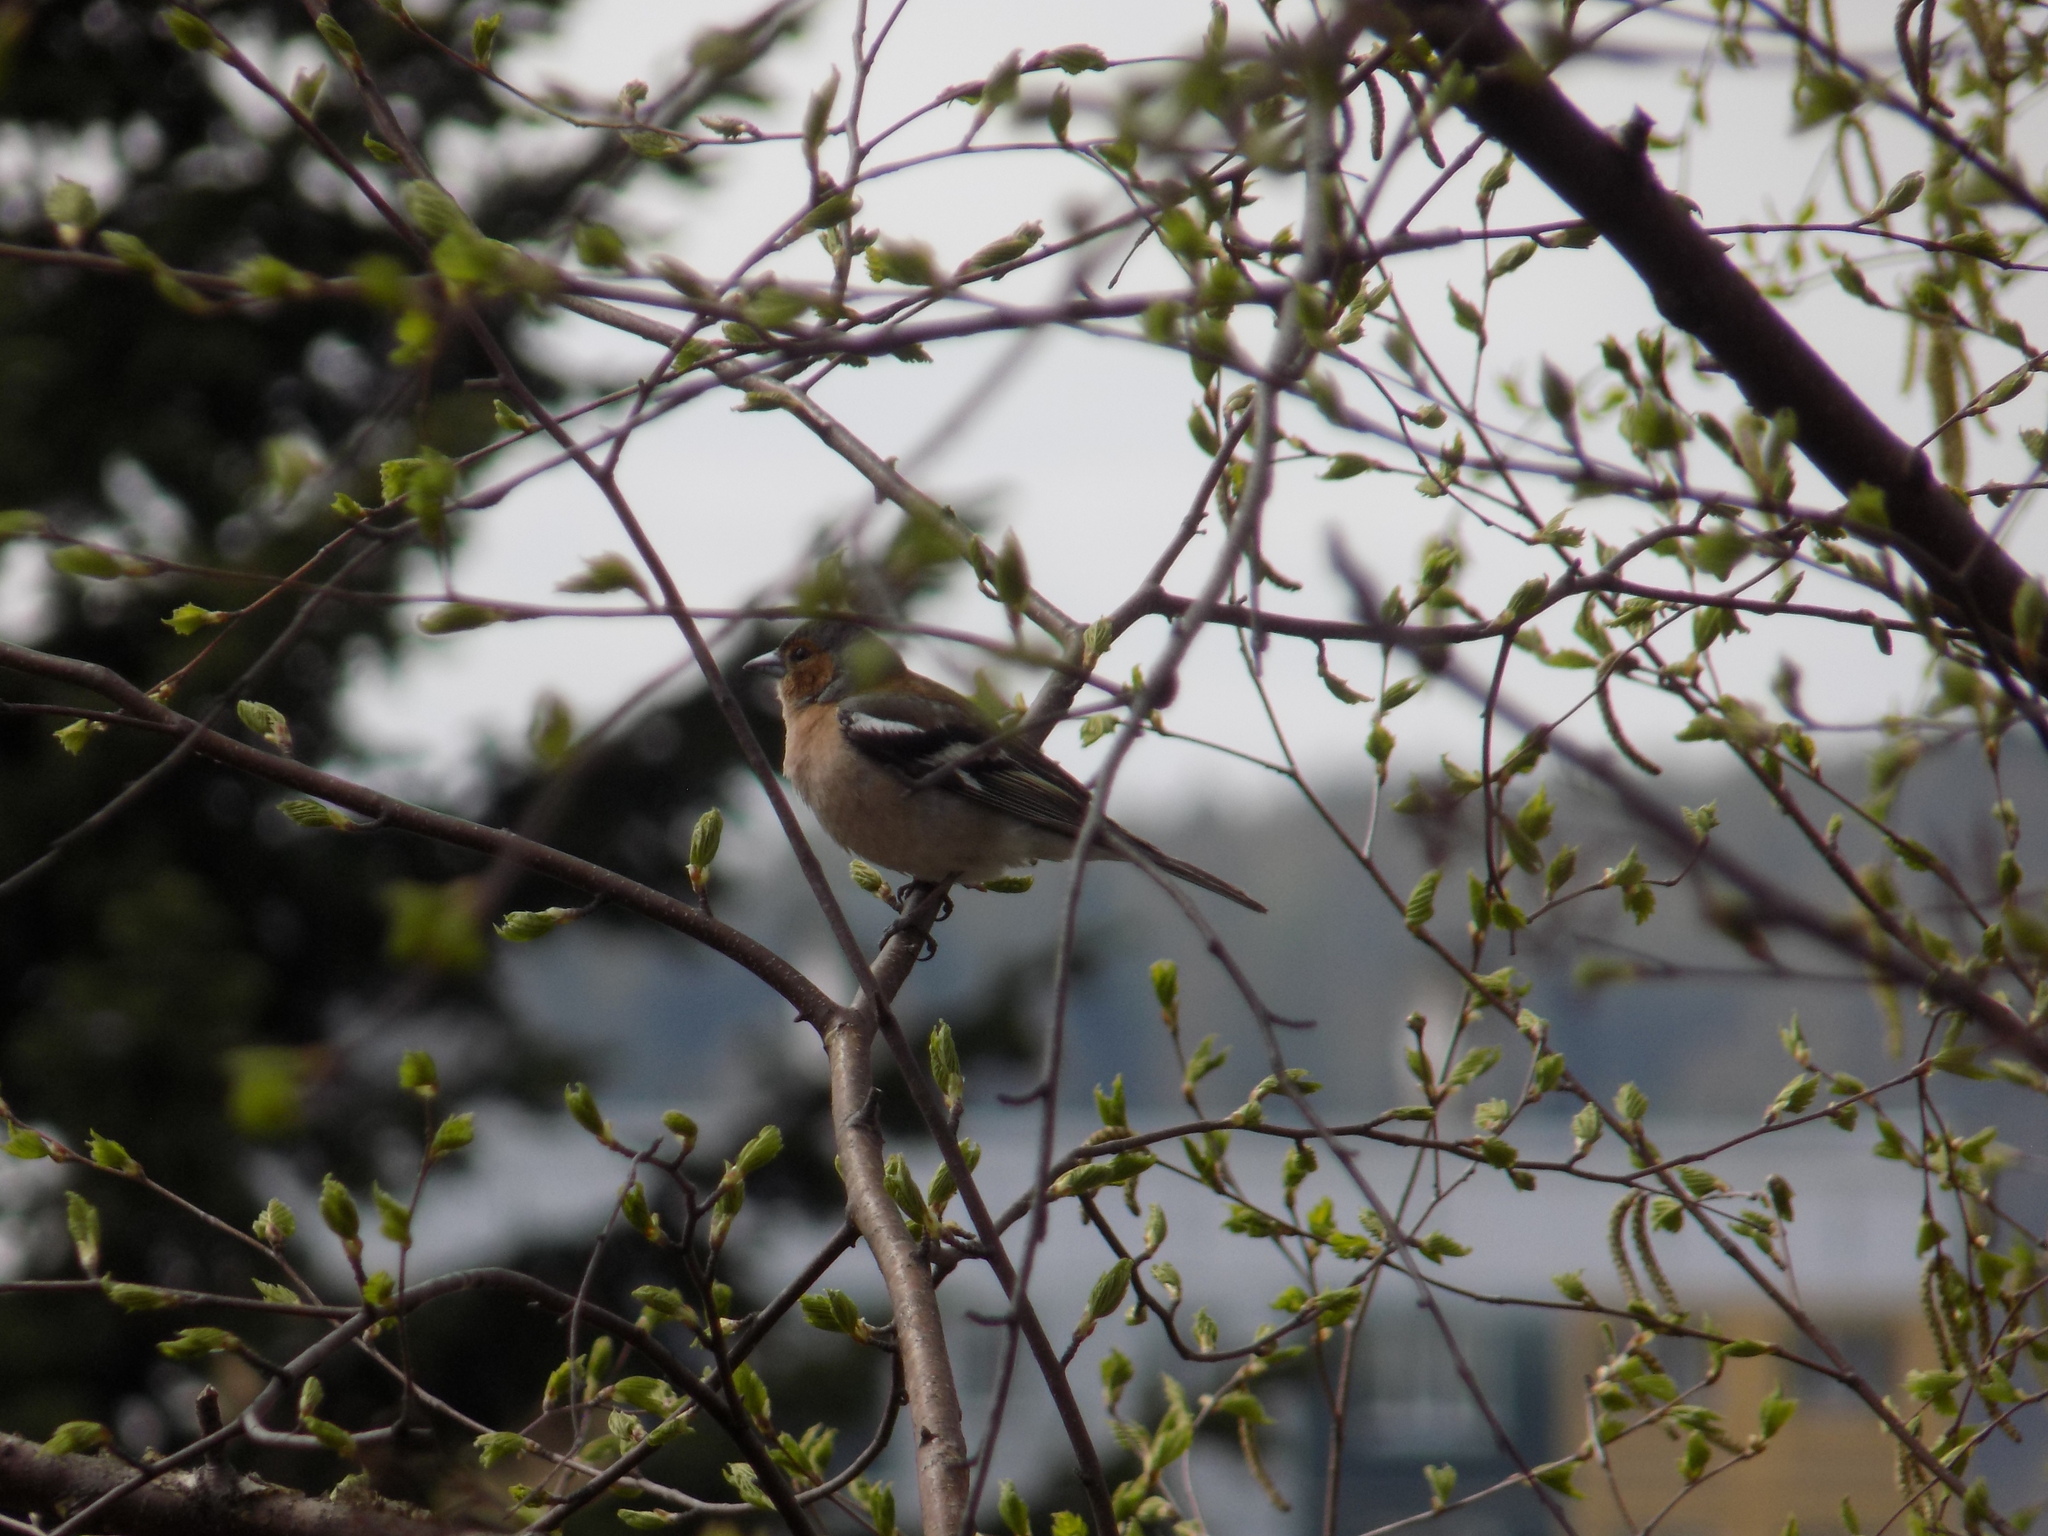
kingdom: Animalia
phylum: Chordata
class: Aves
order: Passeriformes
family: Fringillidae
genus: Fringilla
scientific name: Fringilla coelebs
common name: Common chaffinch
